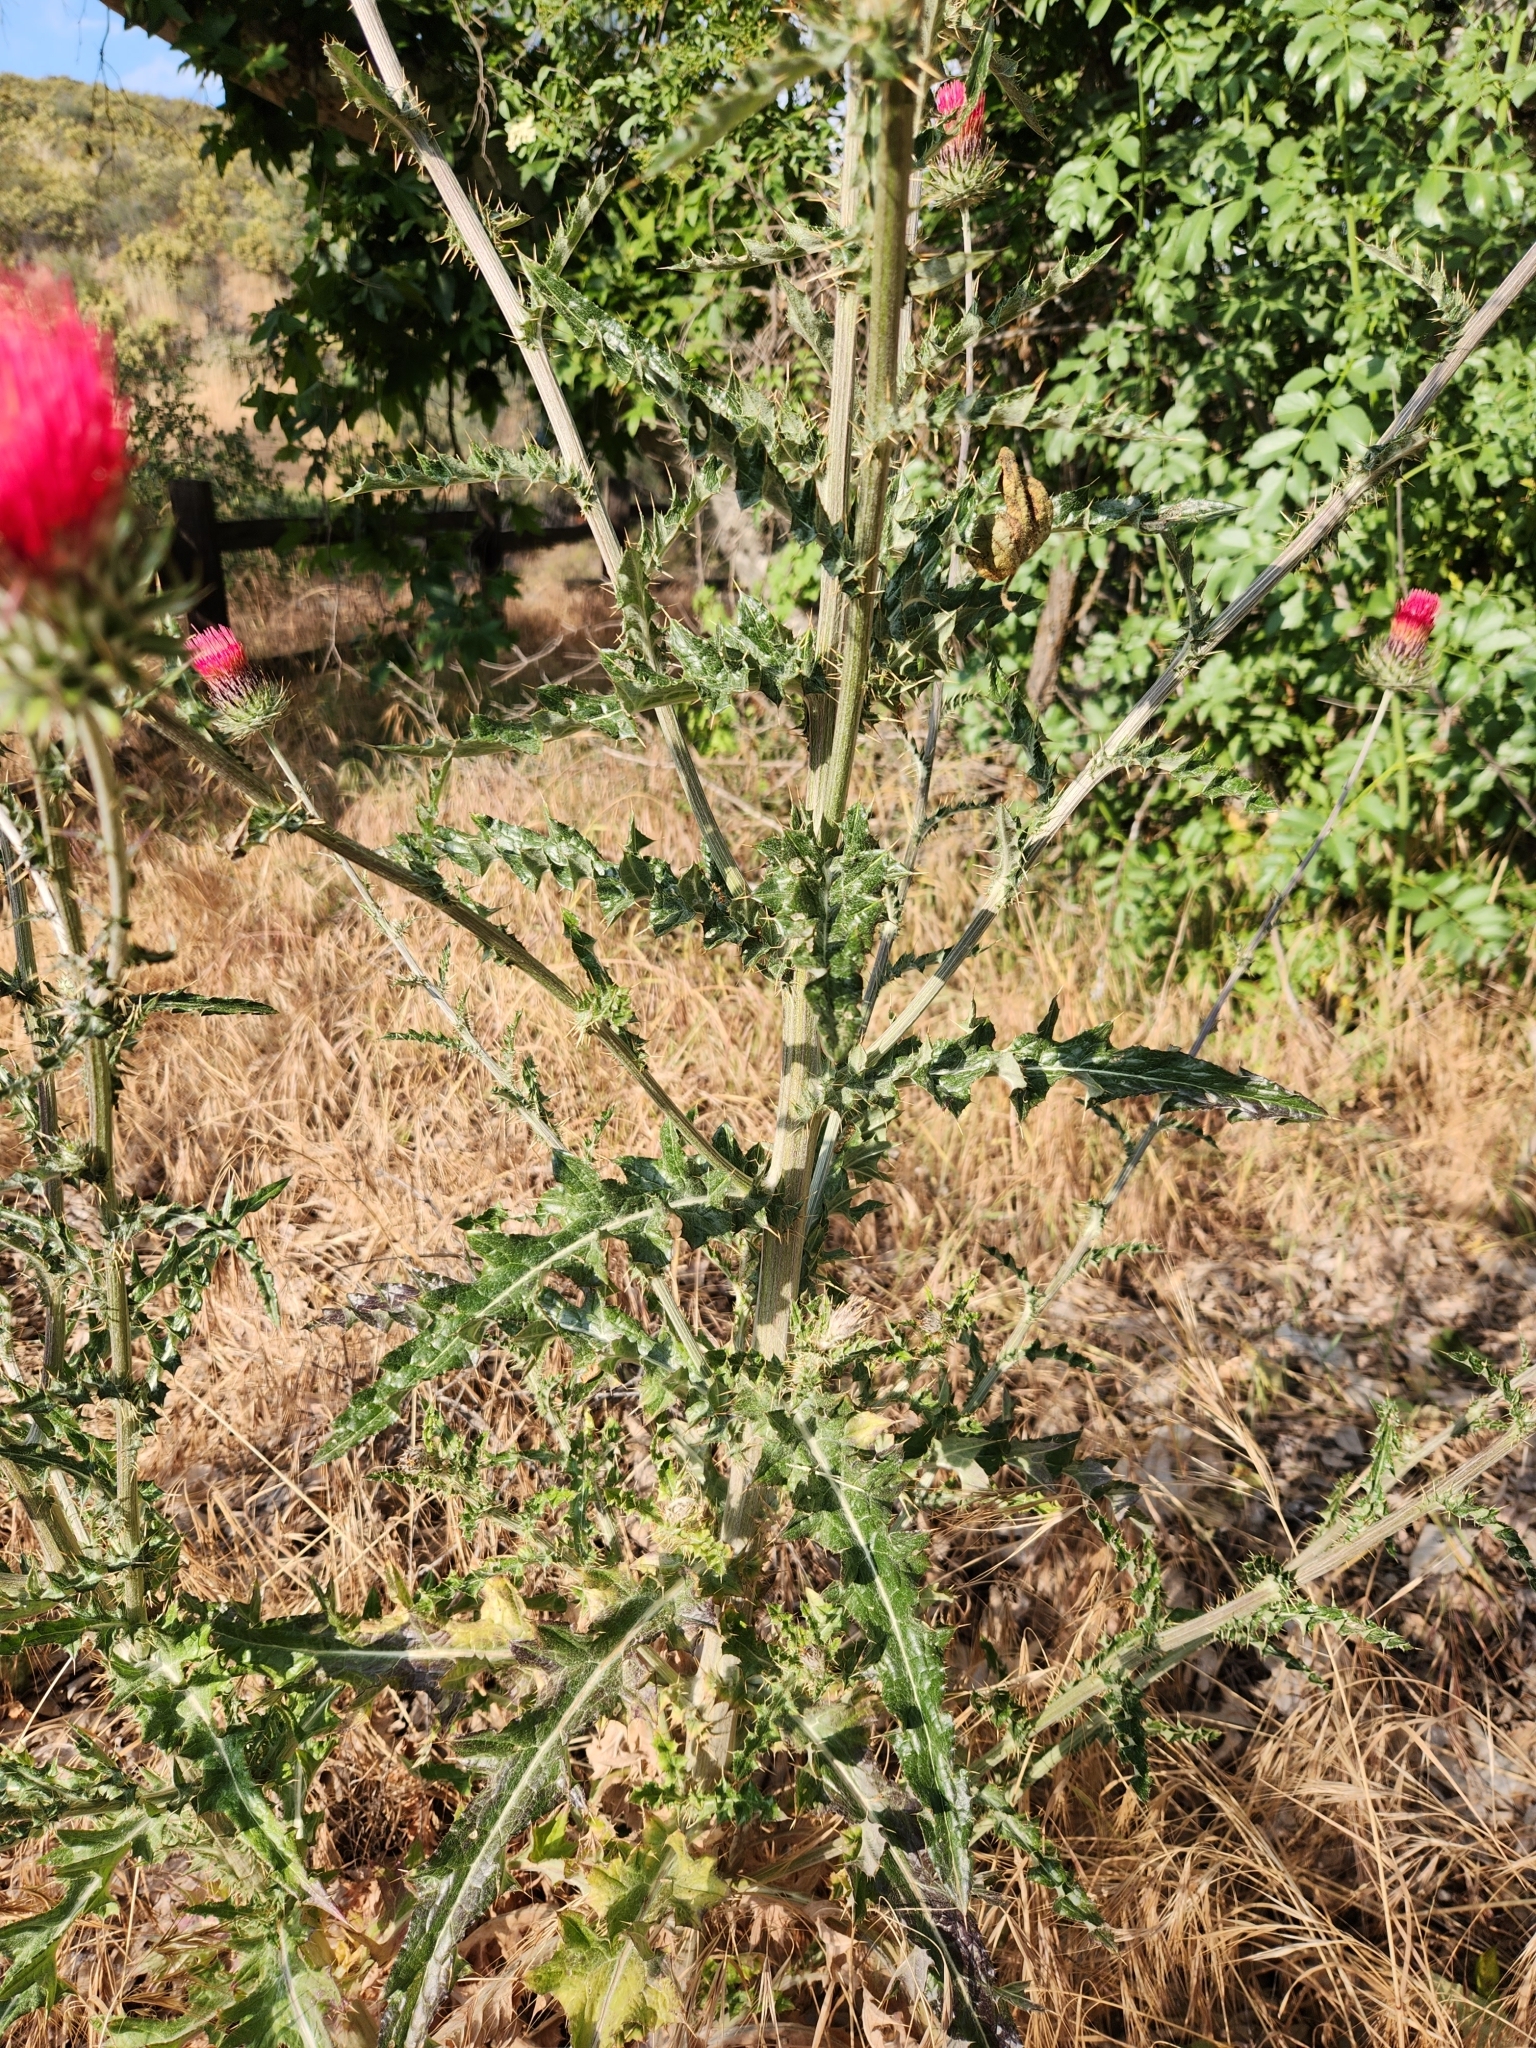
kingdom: Plantae
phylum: Tracheophyta
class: Magnoliopsida
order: Asterales
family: Asteraceae
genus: Cirsium
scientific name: Cirsium occidentale
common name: Western thistle
